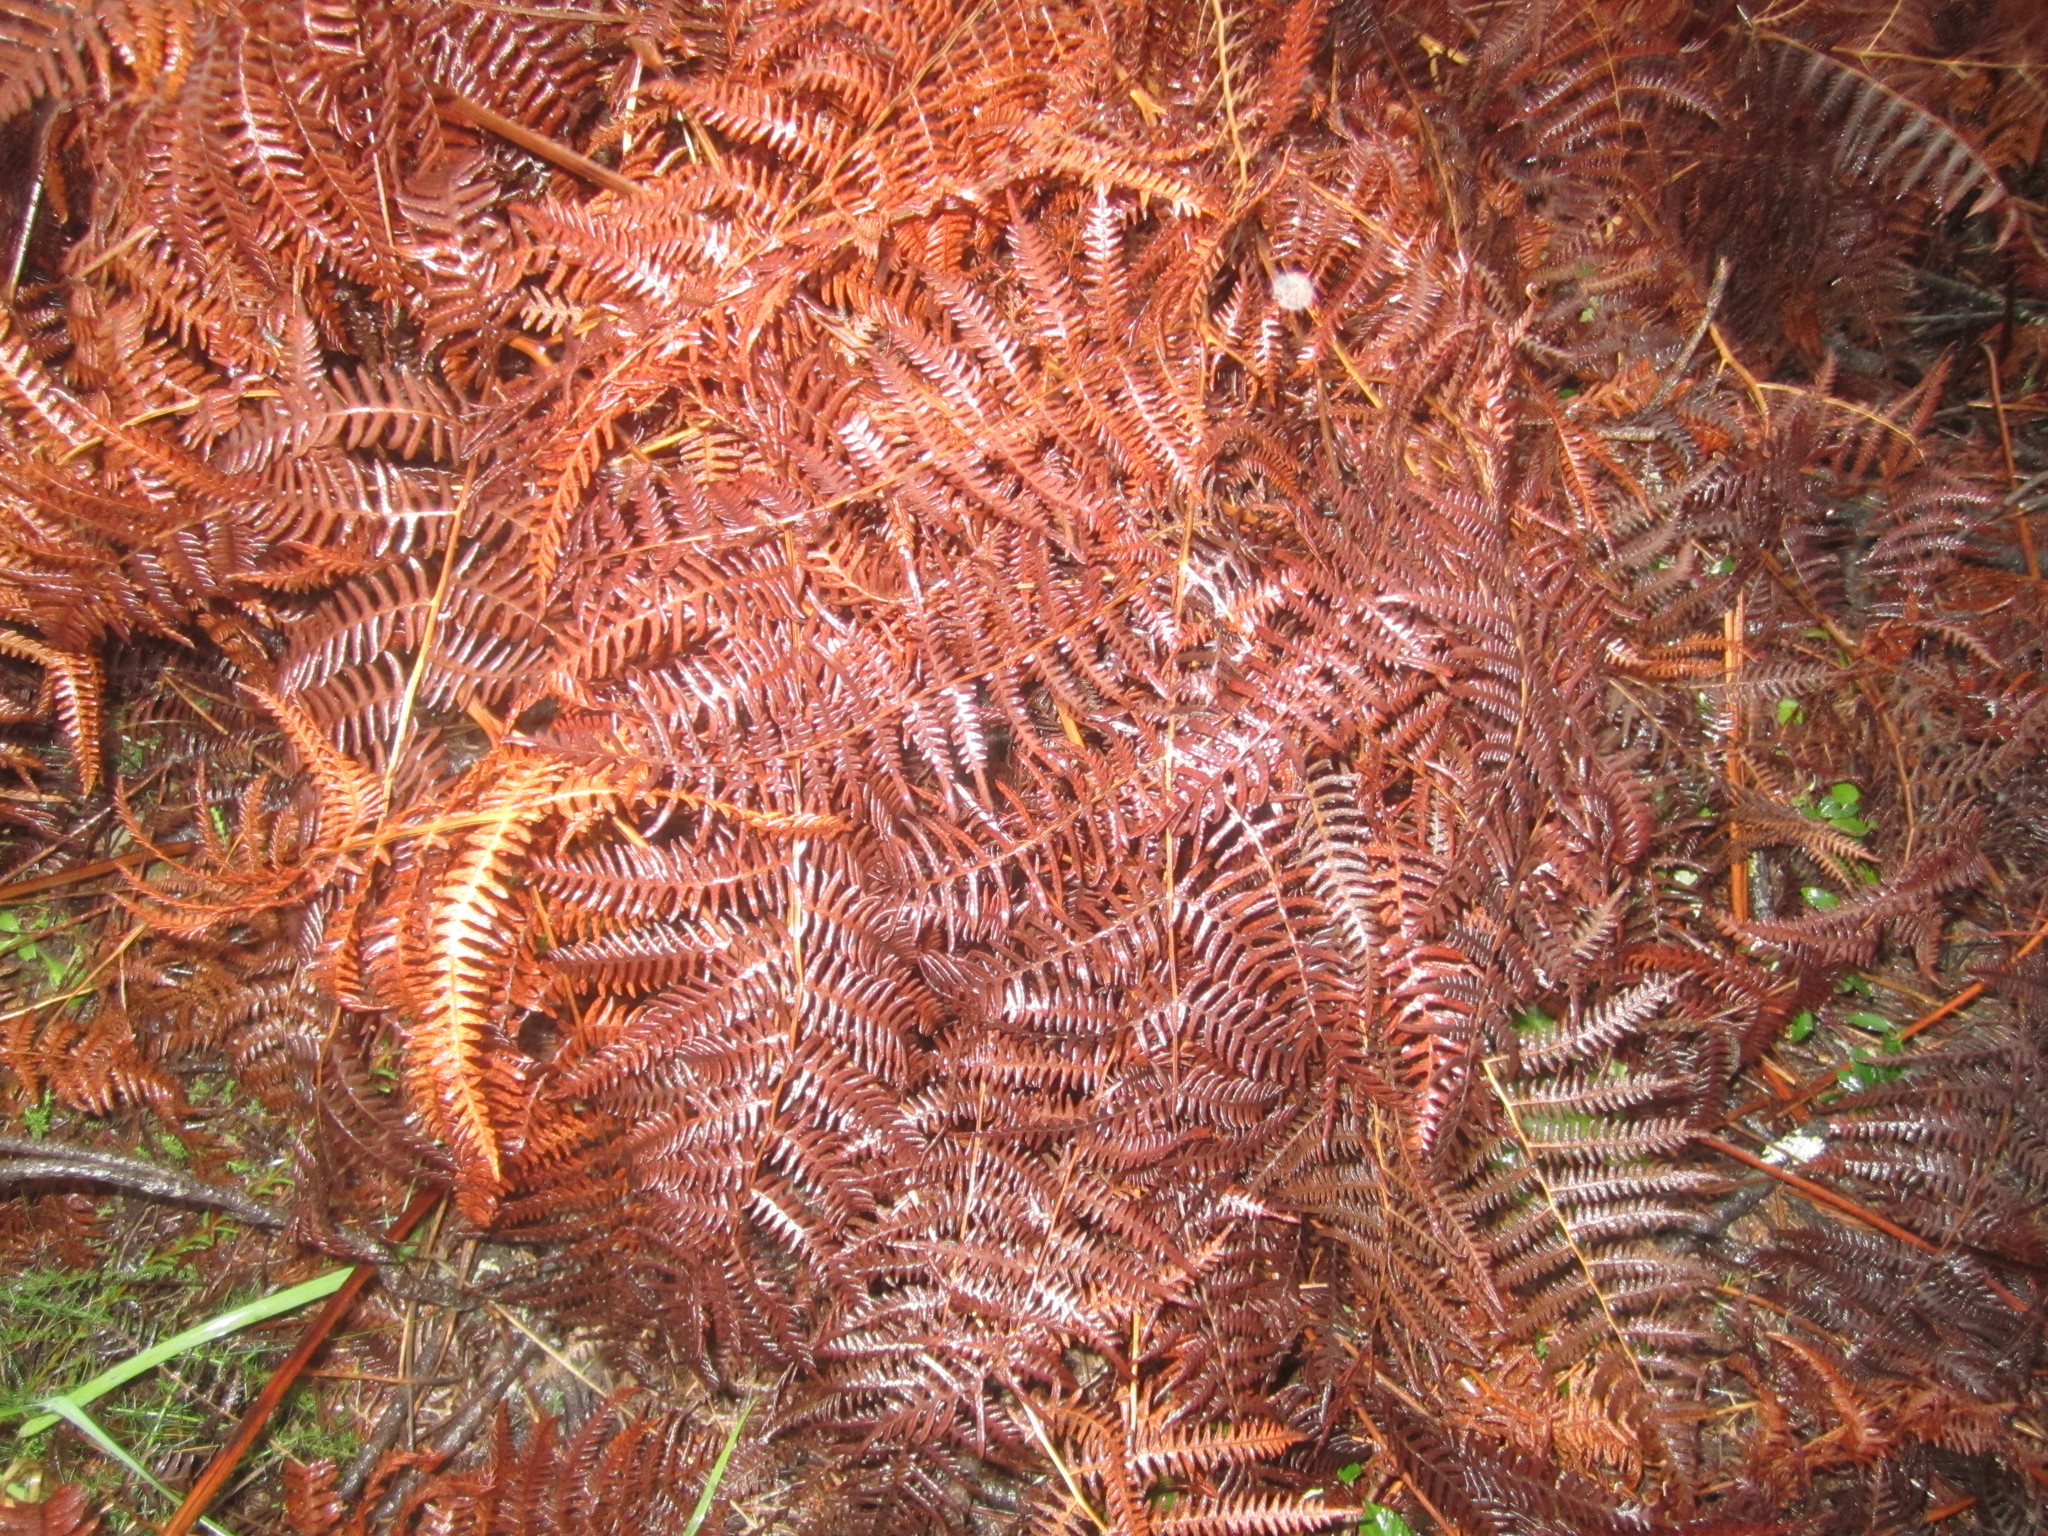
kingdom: Plantae
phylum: Tracheophyta
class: Polypodiopsida
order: Polypodiales
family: Dennstaedtiaceae
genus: Pteridium
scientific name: Pteridium aquilinum
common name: Bracken
